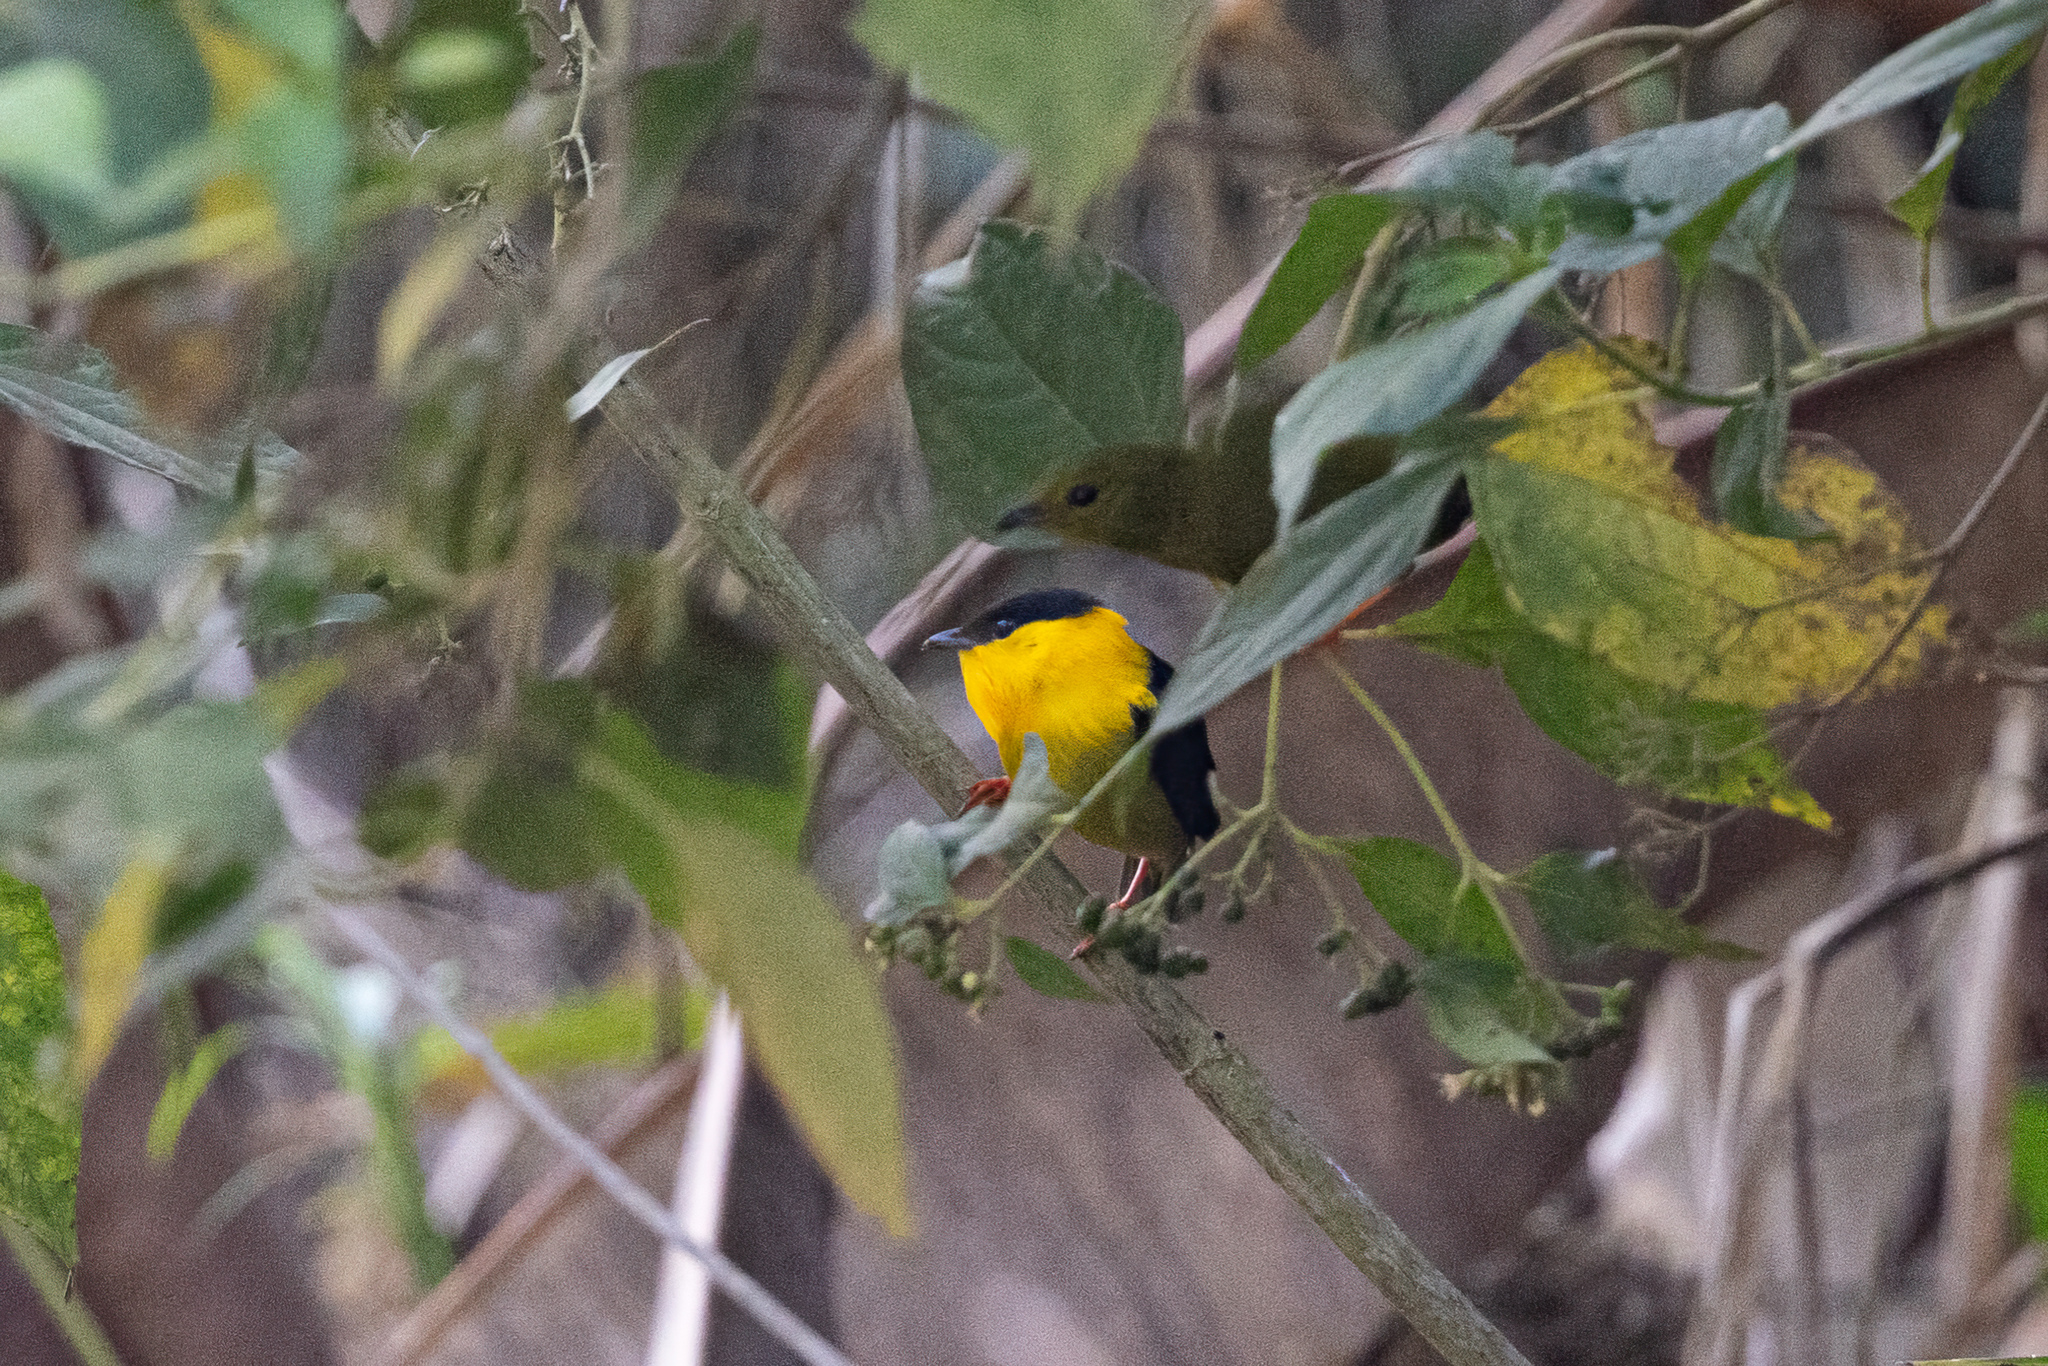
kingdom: Animalia
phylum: Chordata
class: Aves
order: Passeriformes
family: Pipridae
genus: Manacus
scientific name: Manacus vitellinus
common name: Golden-collared manakin
